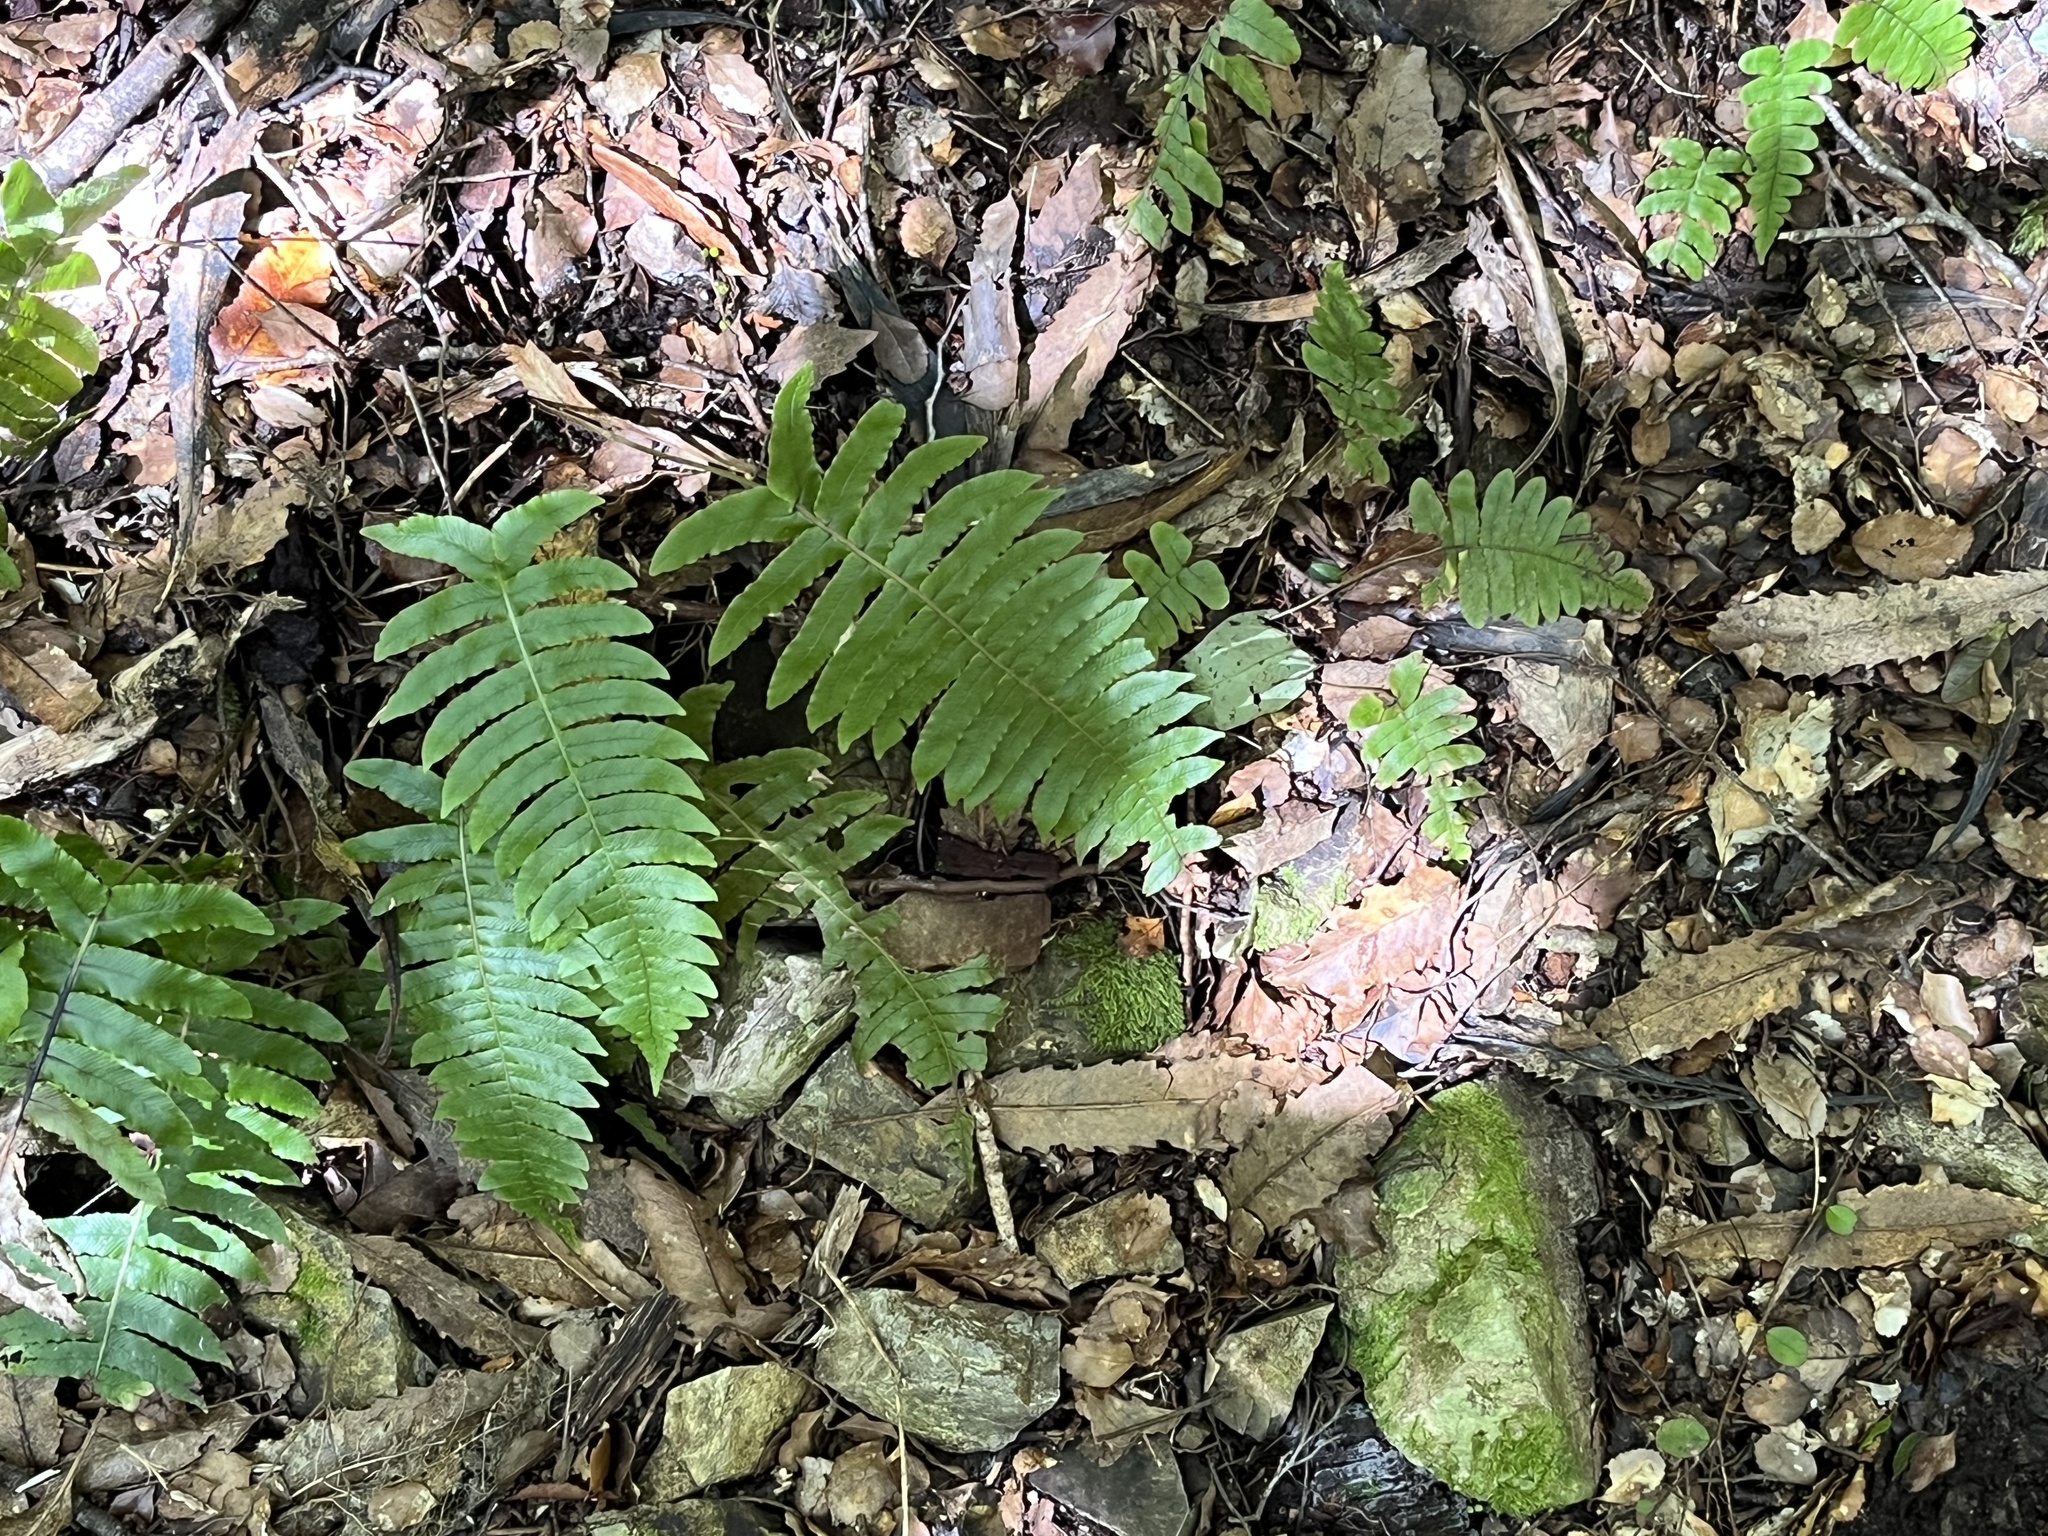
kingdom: Plantae
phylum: Tracheophyta
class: Polypodiopsida
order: Polypodiales
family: Blechnaceae
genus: Cranfillia
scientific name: Cranfillia deltoides
